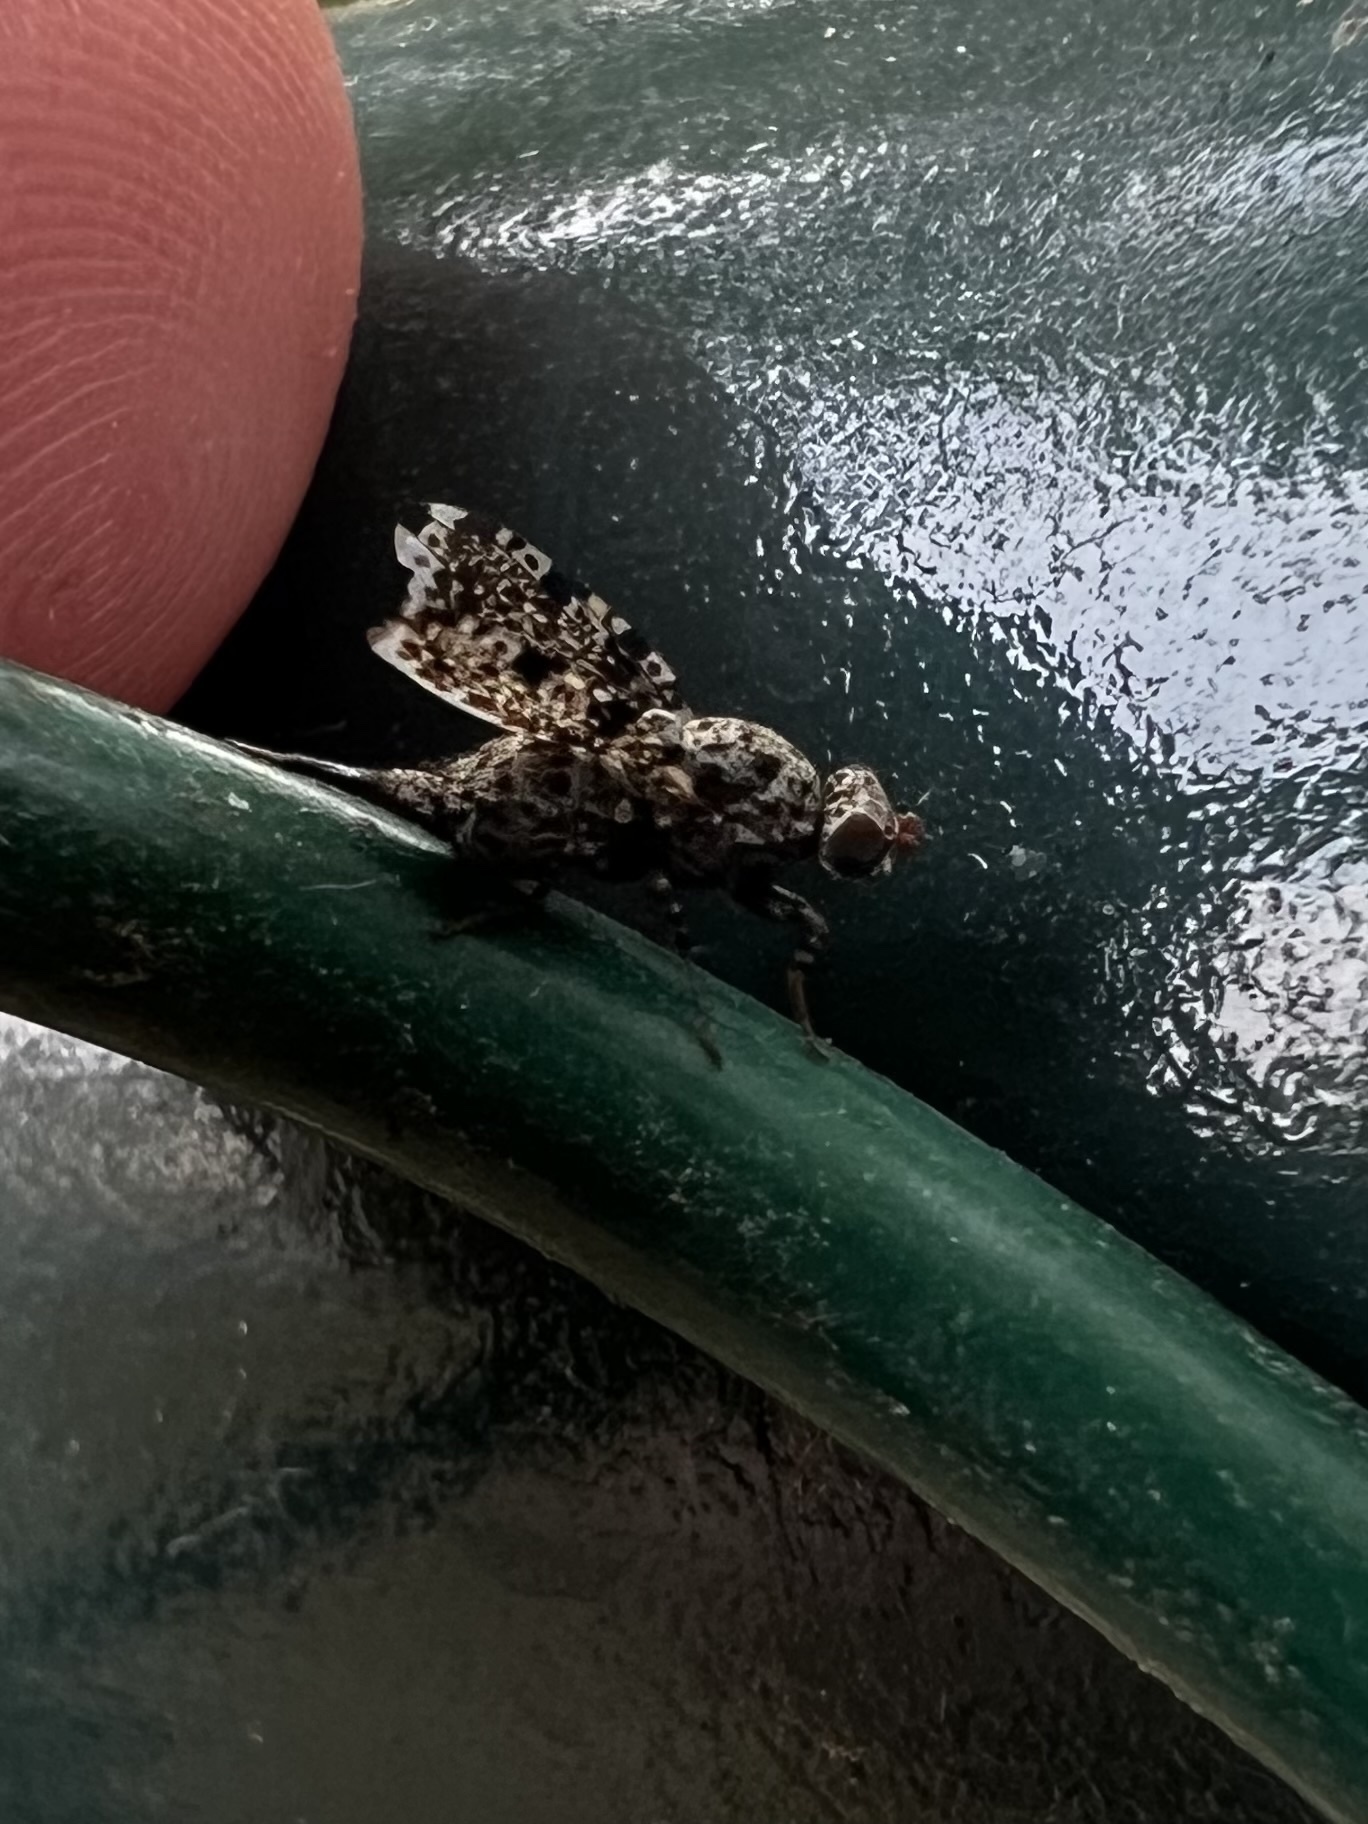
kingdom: Animalia
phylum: Arthropoda
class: Insecta
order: Diptera
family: Ulidiidae
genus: Callopistromyia
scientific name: Callopistromyia annulipes
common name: Peacock fly
